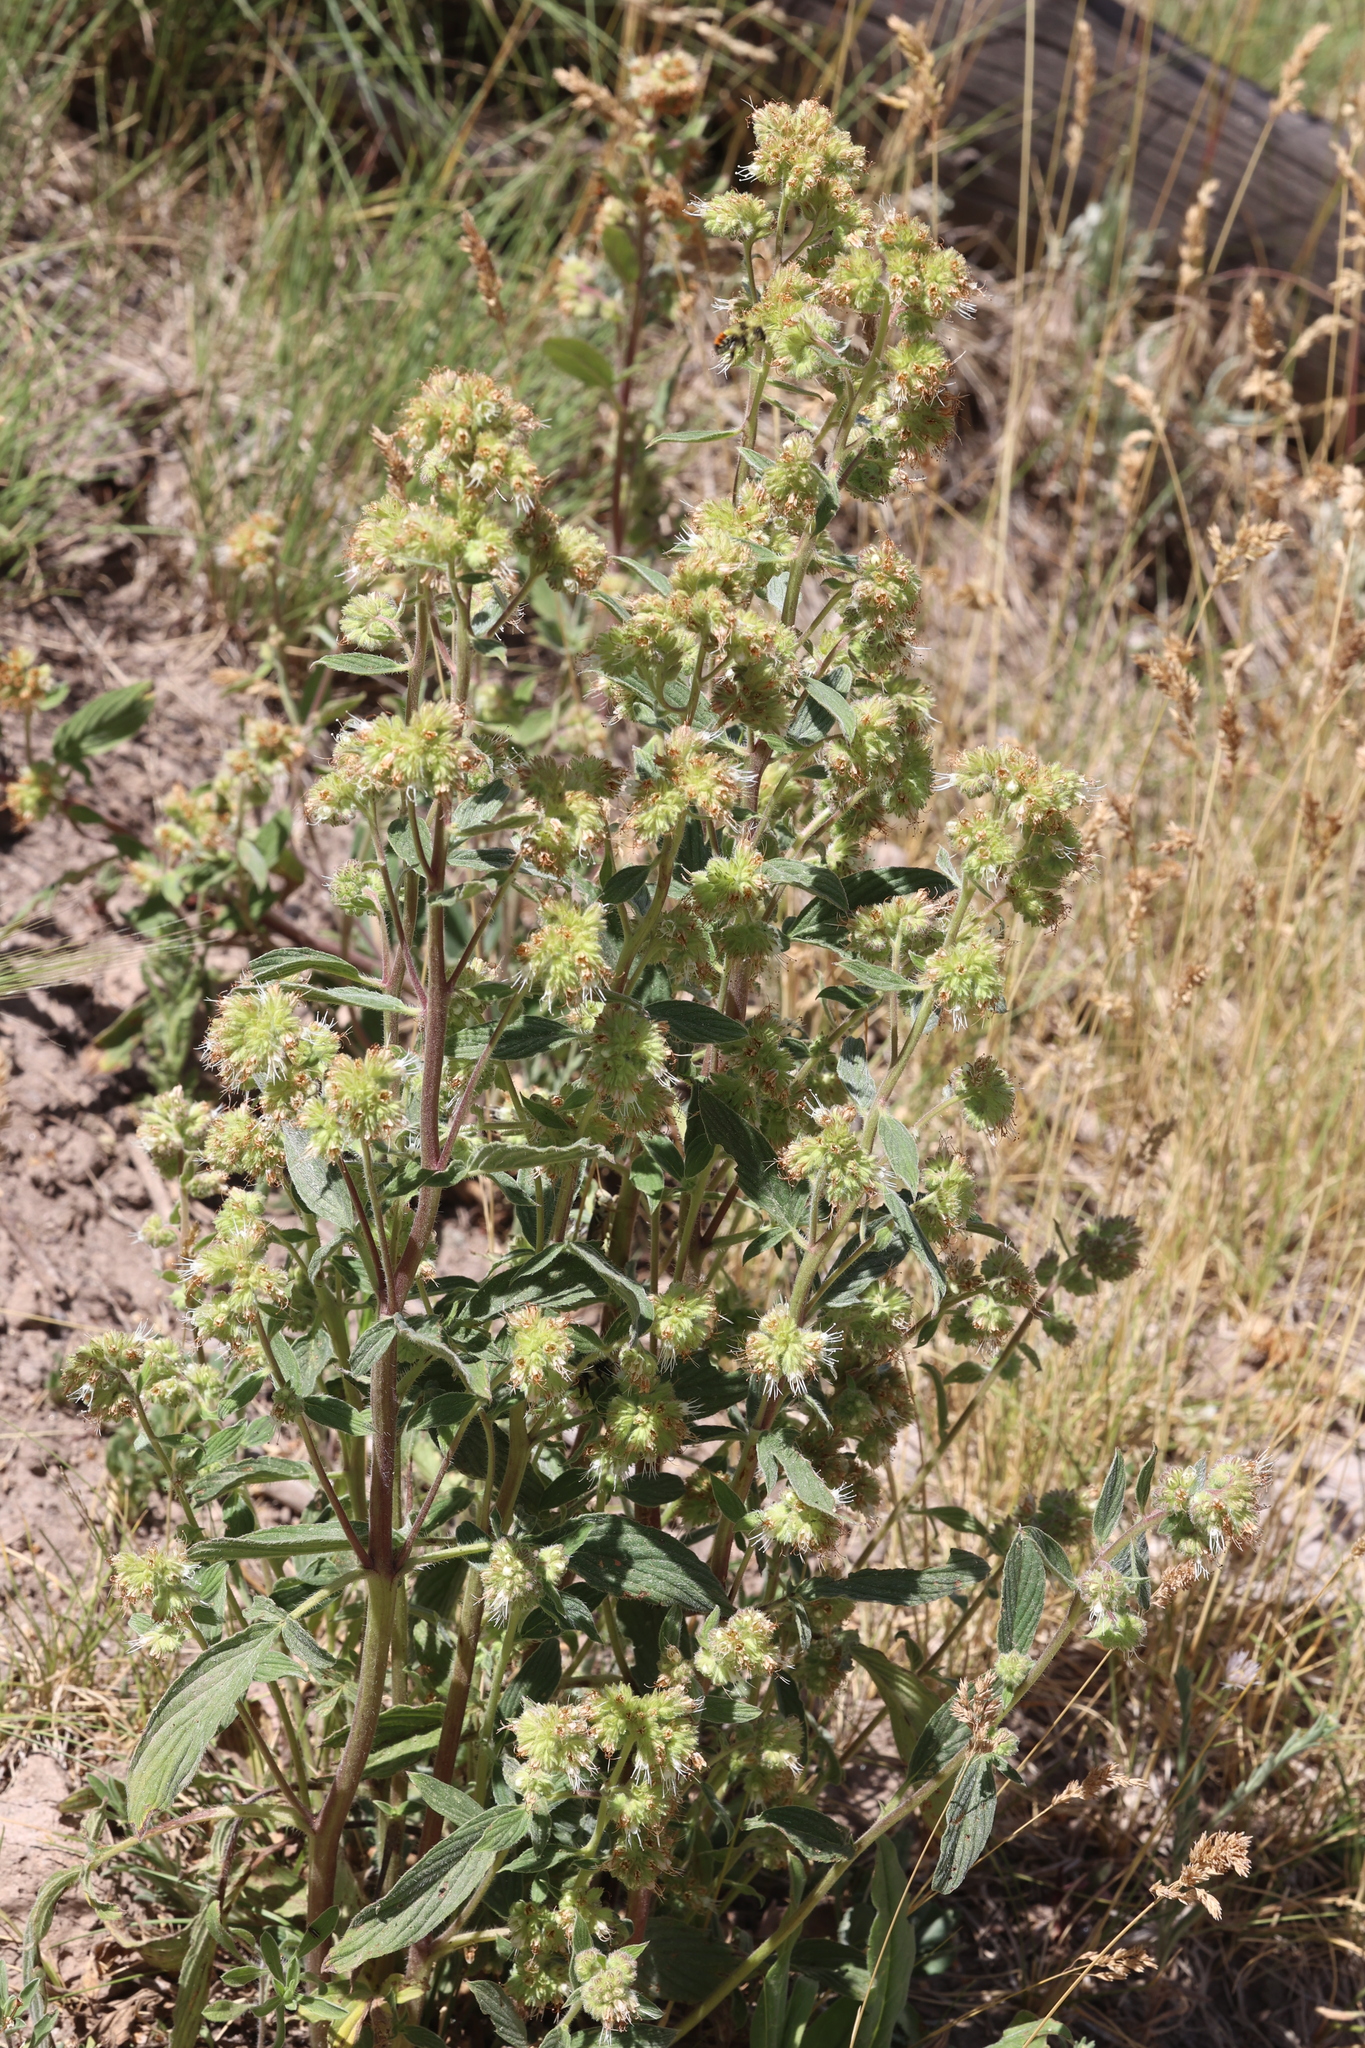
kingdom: Plantae
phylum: Tracheophyta
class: Magnoliopsida
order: Boraginales
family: Hydrophyllaceae
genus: Phacelia
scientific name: Phacelia heterophylla
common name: Variable-leaved phacelia
